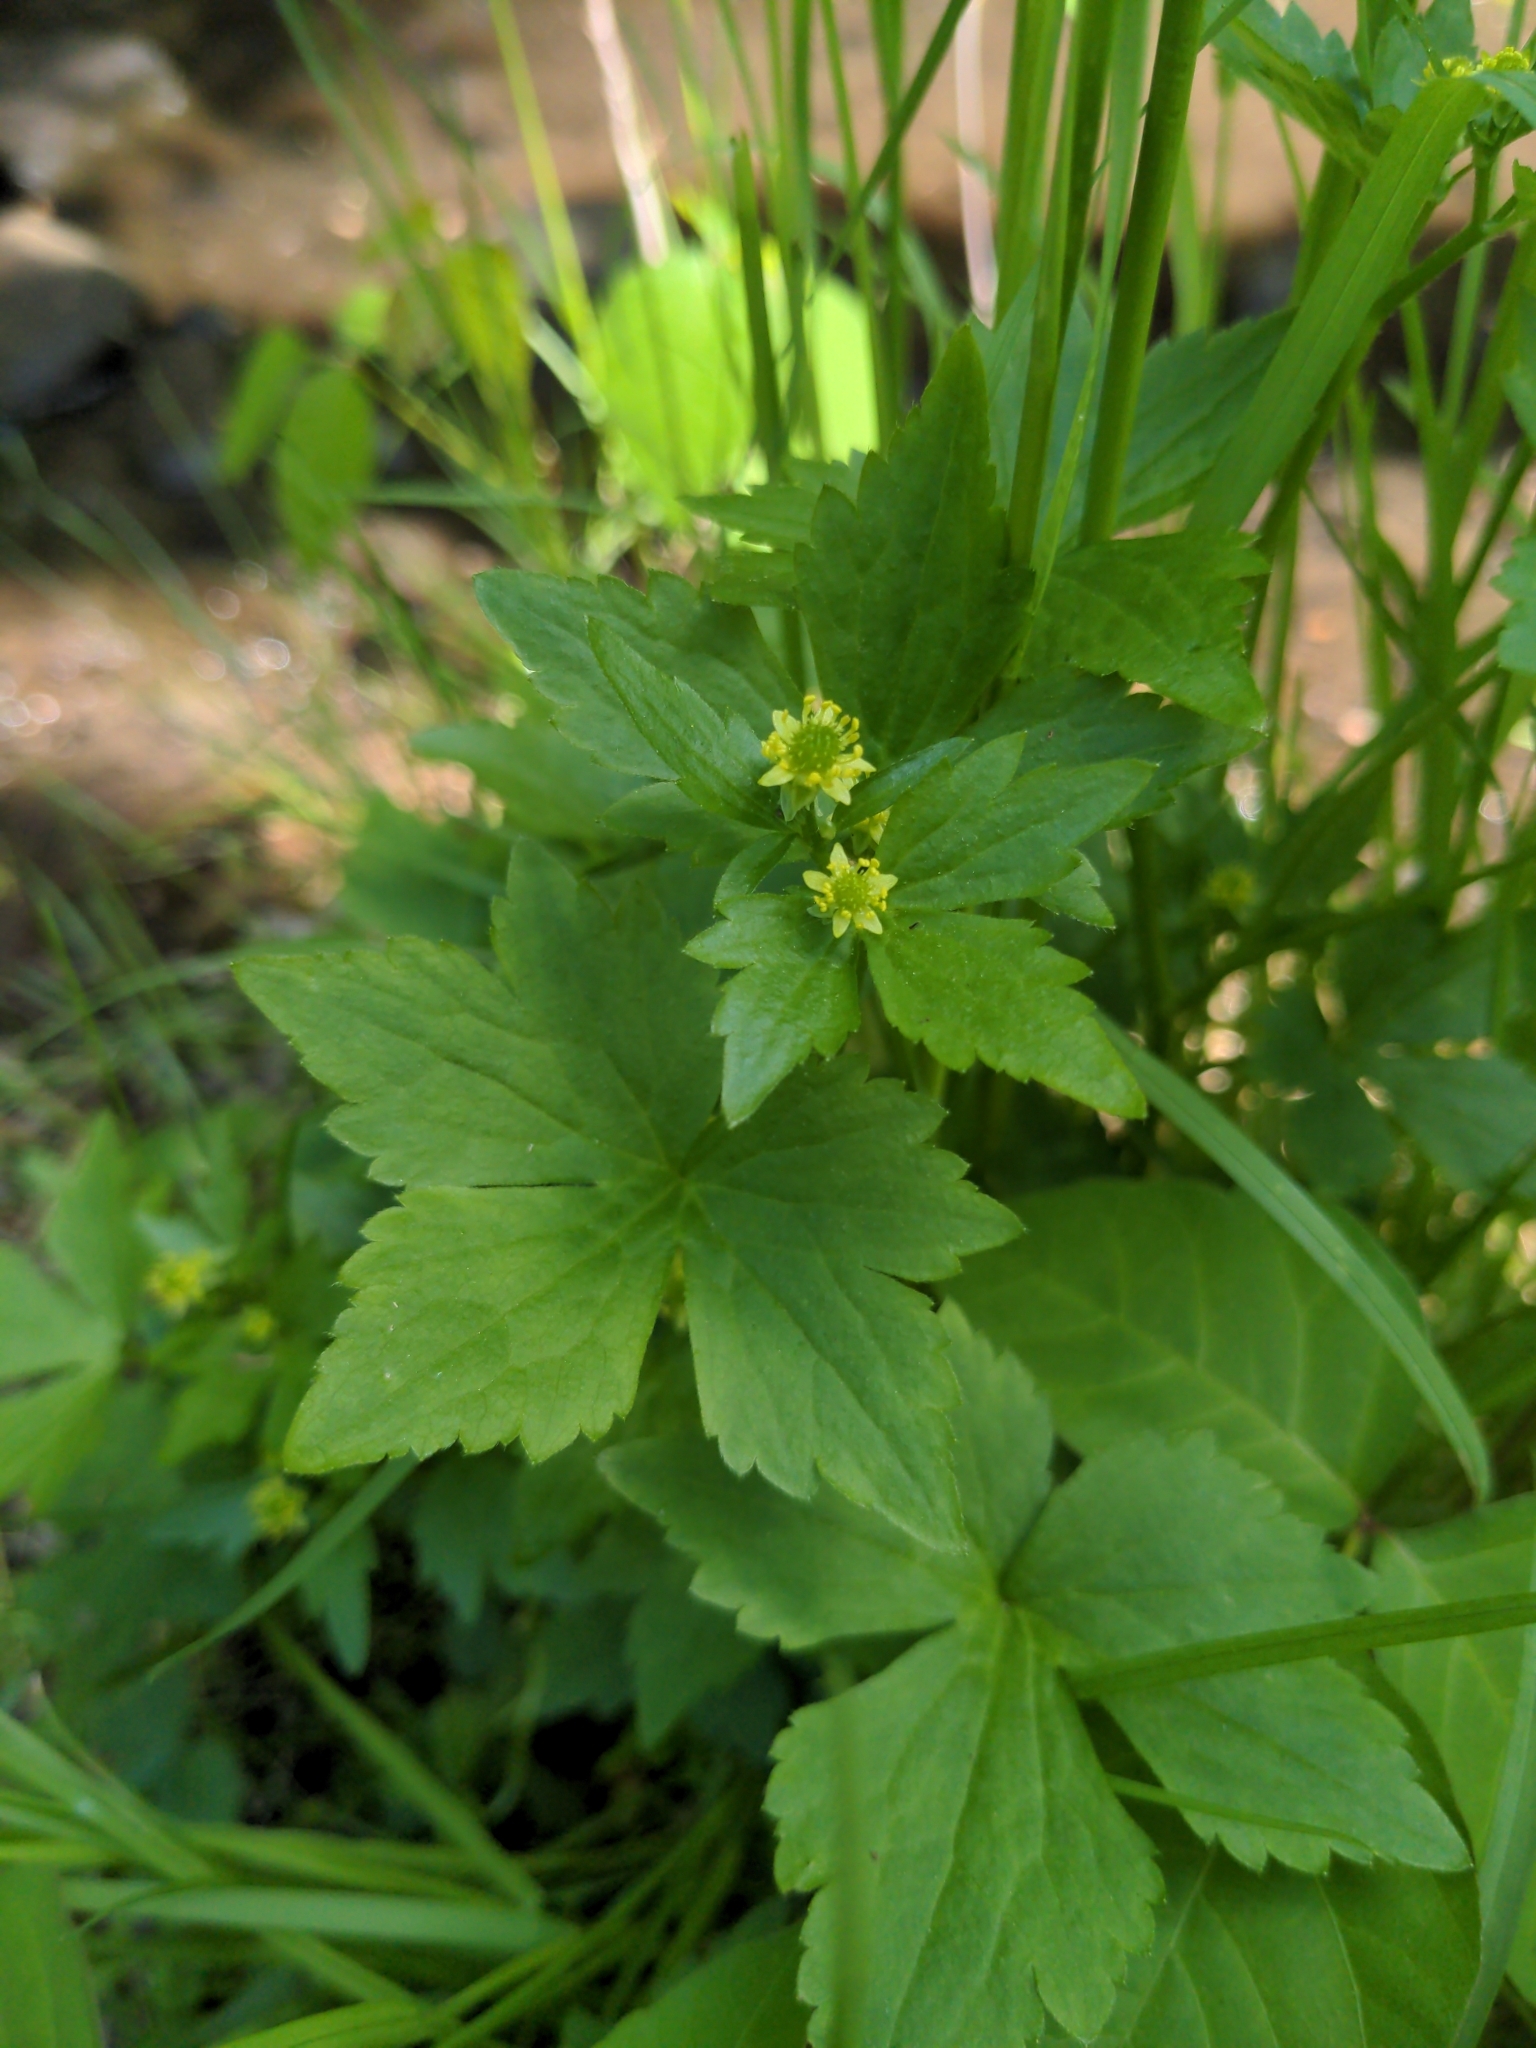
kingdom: Plantae
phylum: Tracheophyta
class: Magnoliopsida
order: Ranunculales
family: Ranunculaceae
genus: Ranunculus
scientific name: Ranunculus recurvatus
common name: Blisterwort
